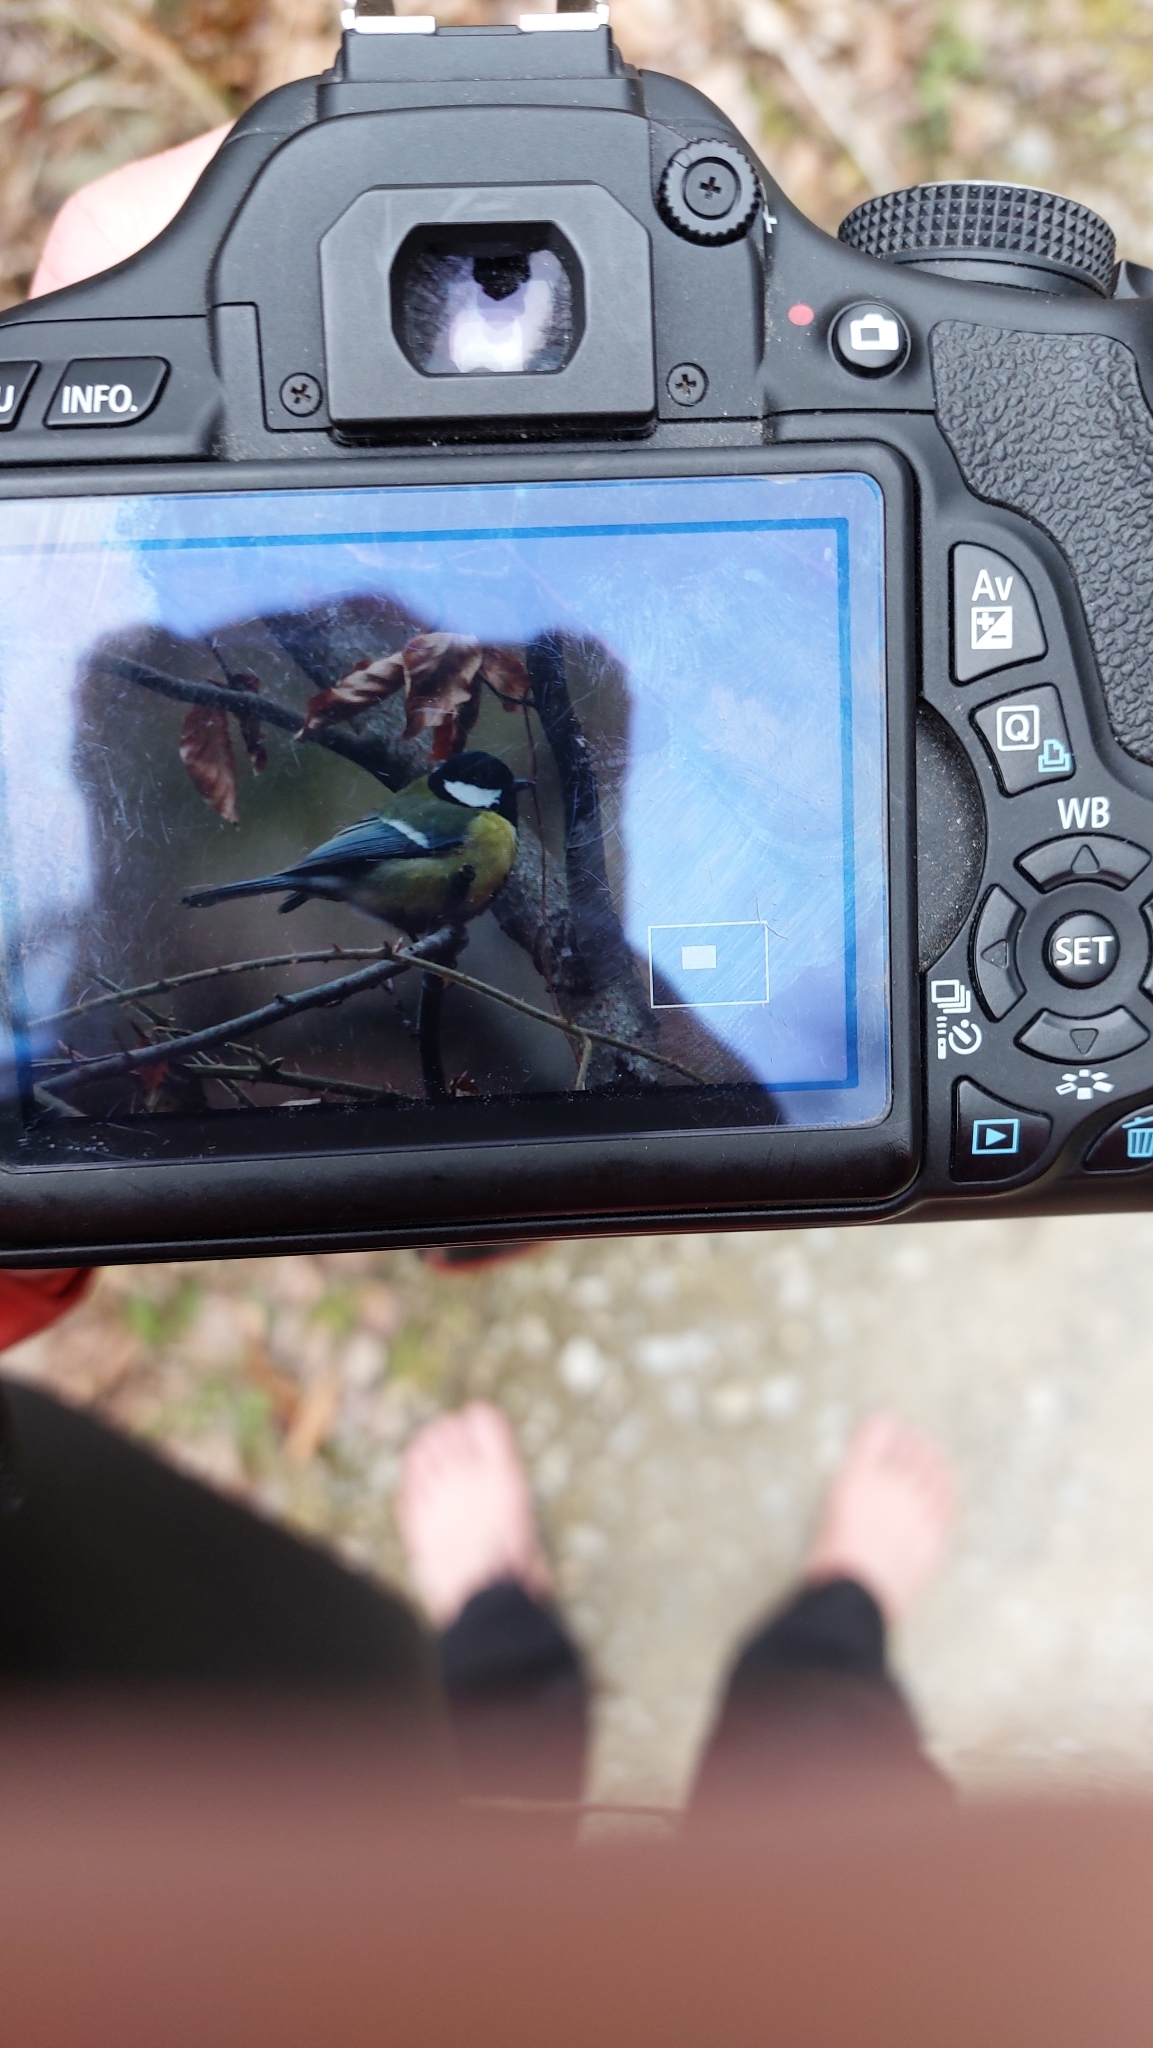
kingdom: Animalia
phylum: Chordata
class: Aves
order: Passeriformes
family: Paridae
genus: Parus
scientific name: Parus major
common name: Great tit
